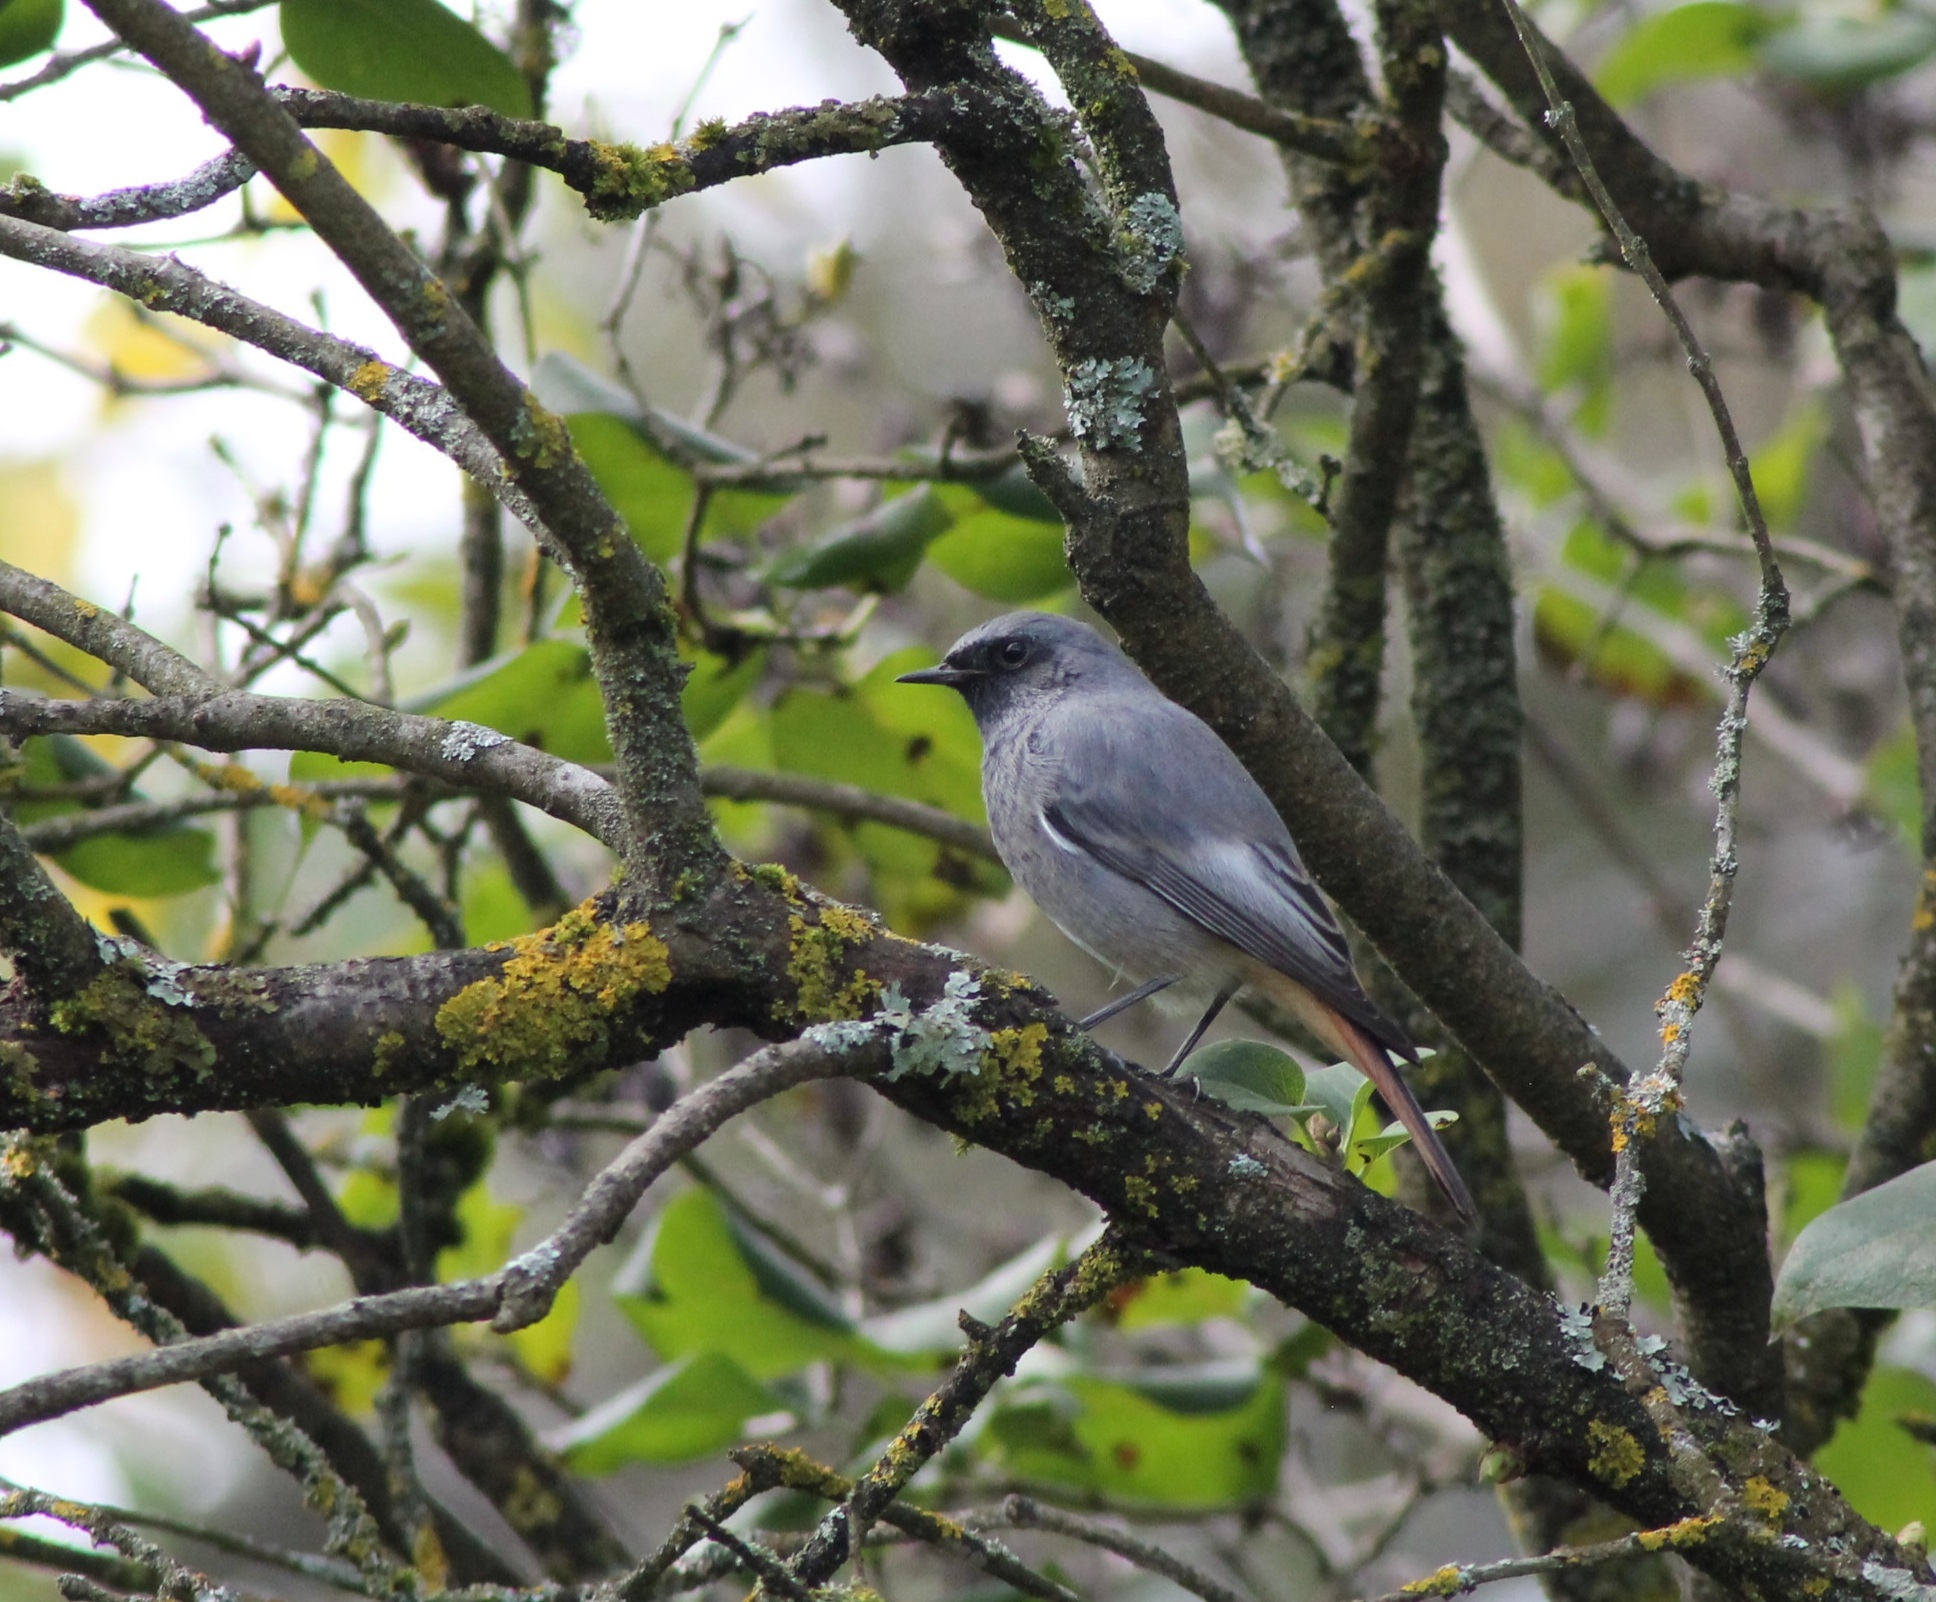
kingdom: Animalia
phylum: Chordata
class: Aves
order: Passeriformes
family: Muscicapidae
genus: Phoenicurus
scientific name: Phoenicurus ochruros
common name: Black redstart
